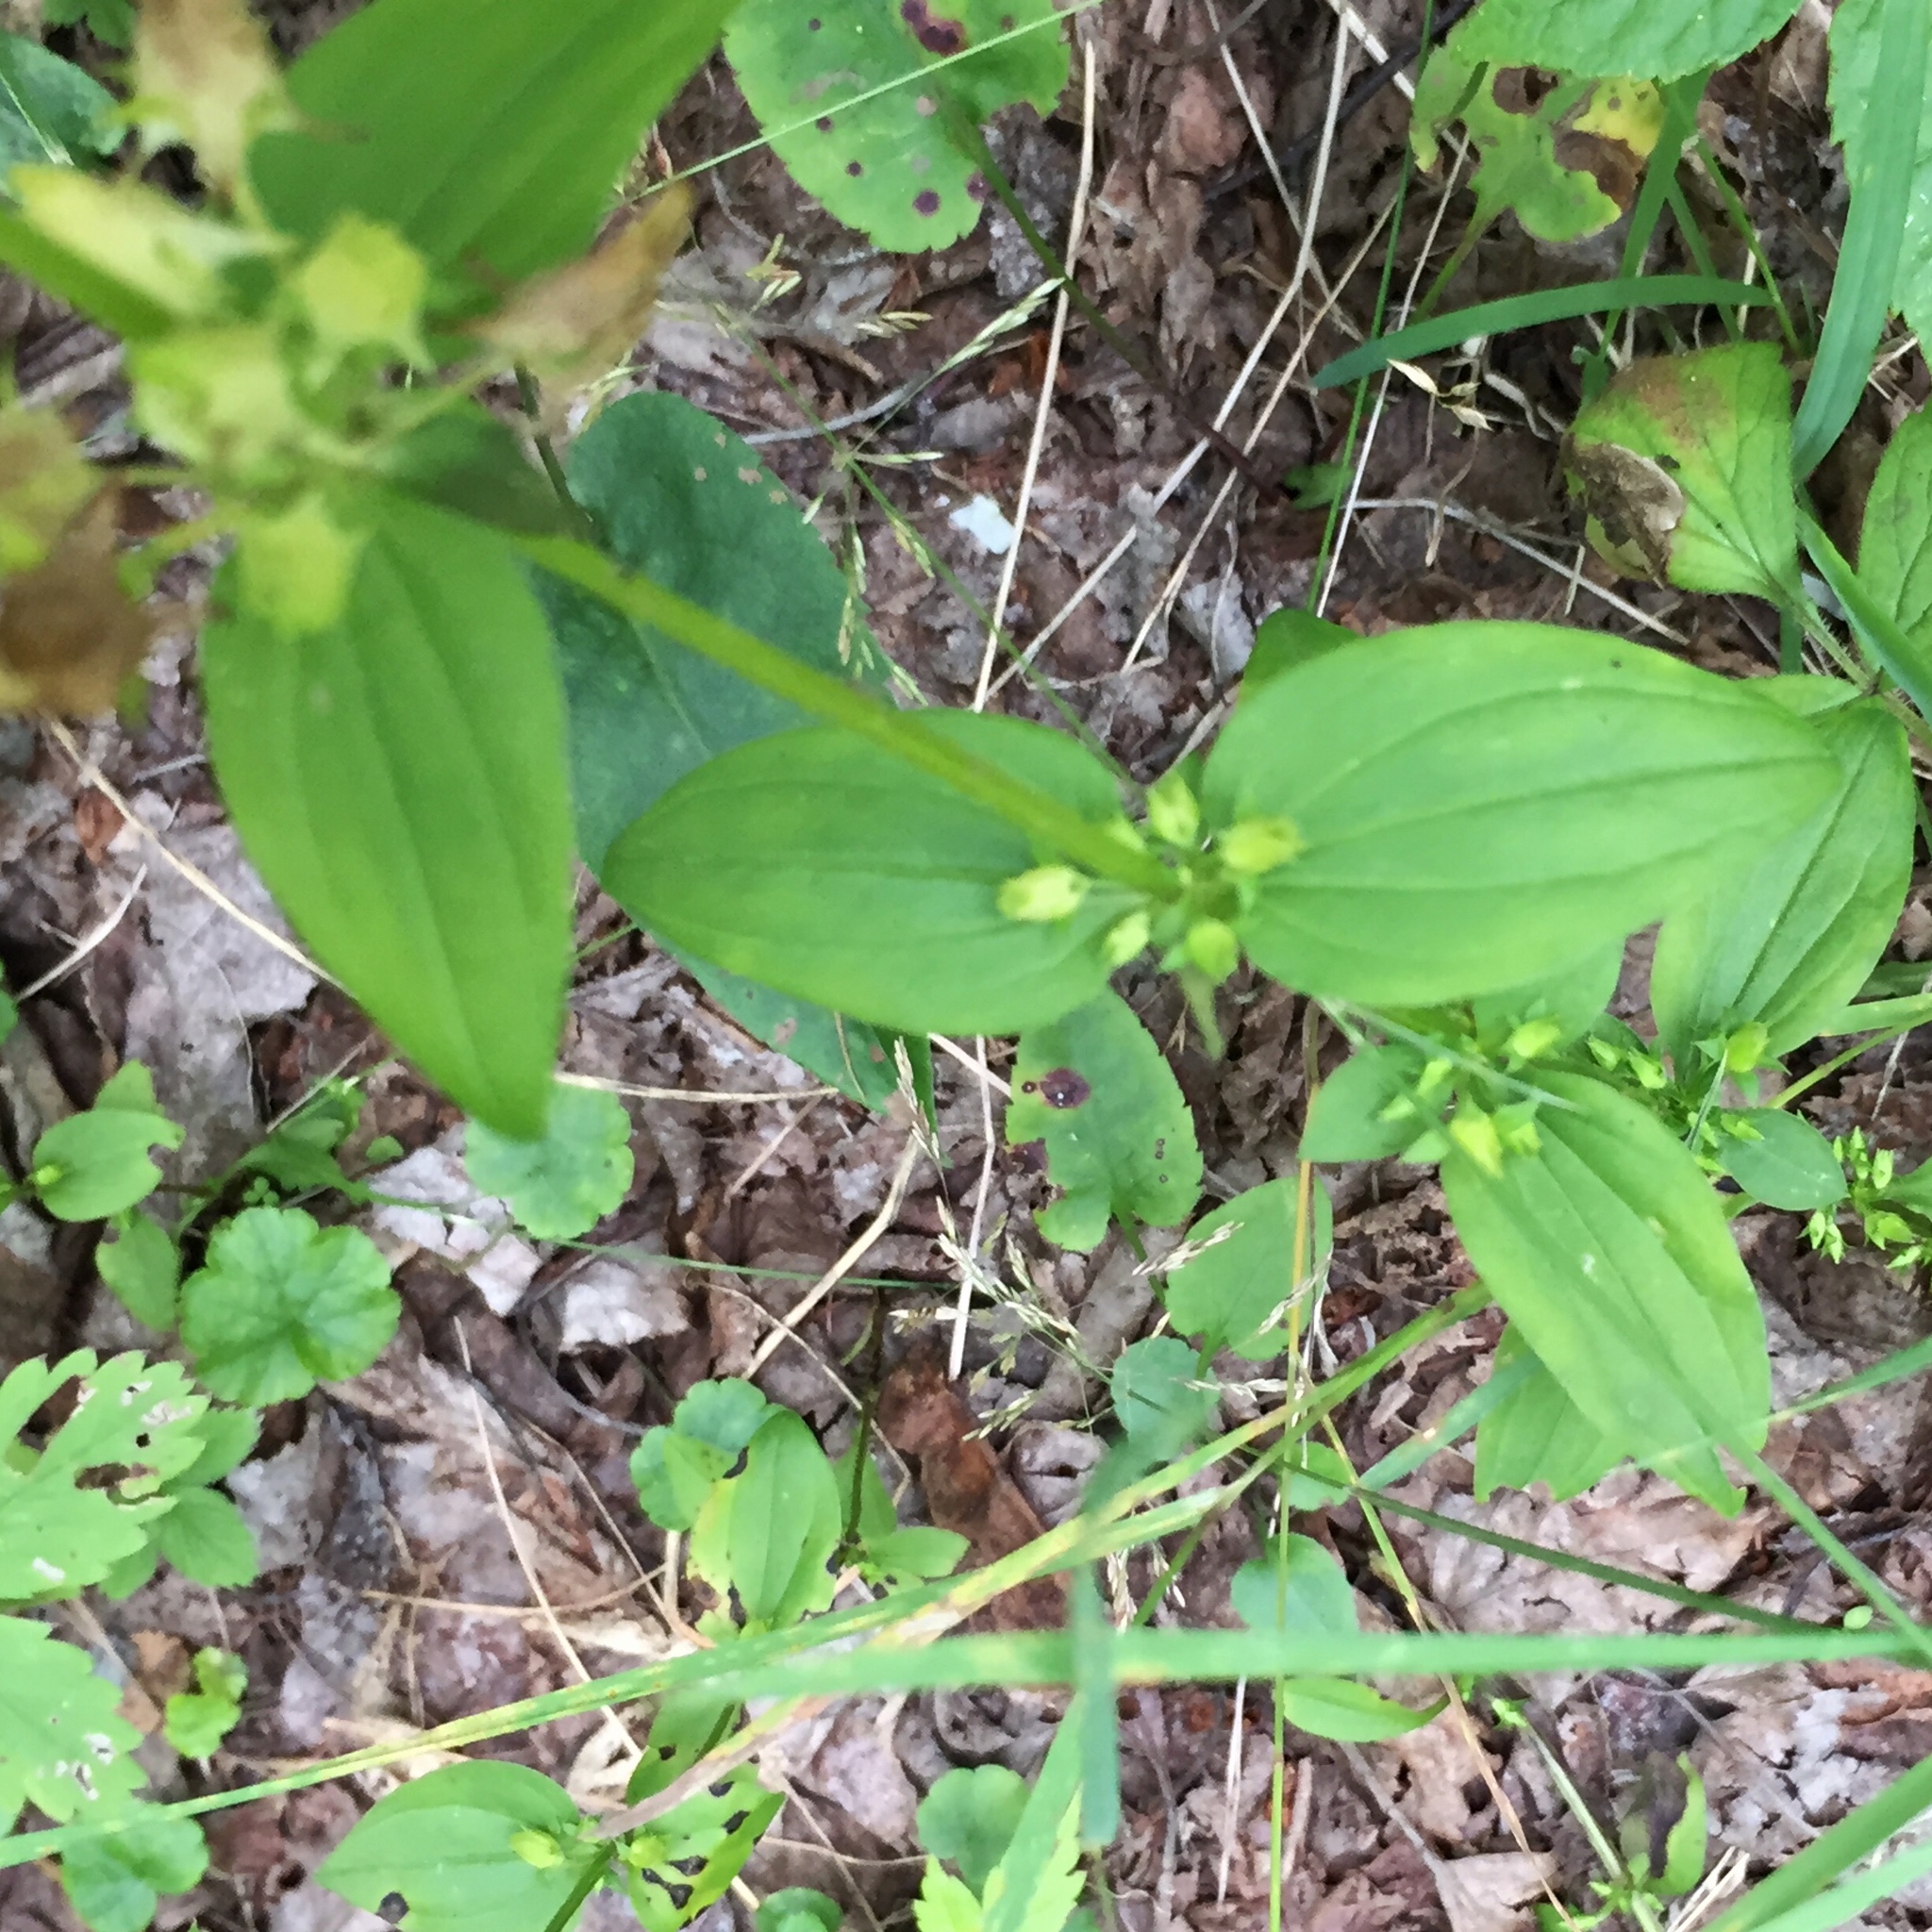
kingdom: Plantae
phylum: Tracheophyta
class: Magnoliopsida
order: Gentianales
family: Gentianaceae
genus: Halenia
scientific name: Halenia deflexa
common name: American spurred gentian
